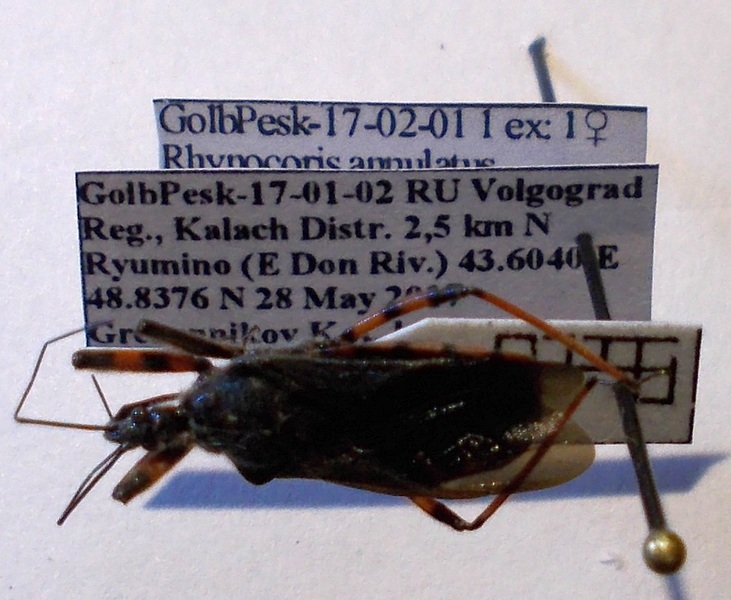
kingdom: Animalia
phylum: Arthropoda
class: Insecta
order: Hemiptera
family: Reduviidae
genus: Rhynocoris
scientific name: Rhynocoris annulatus
